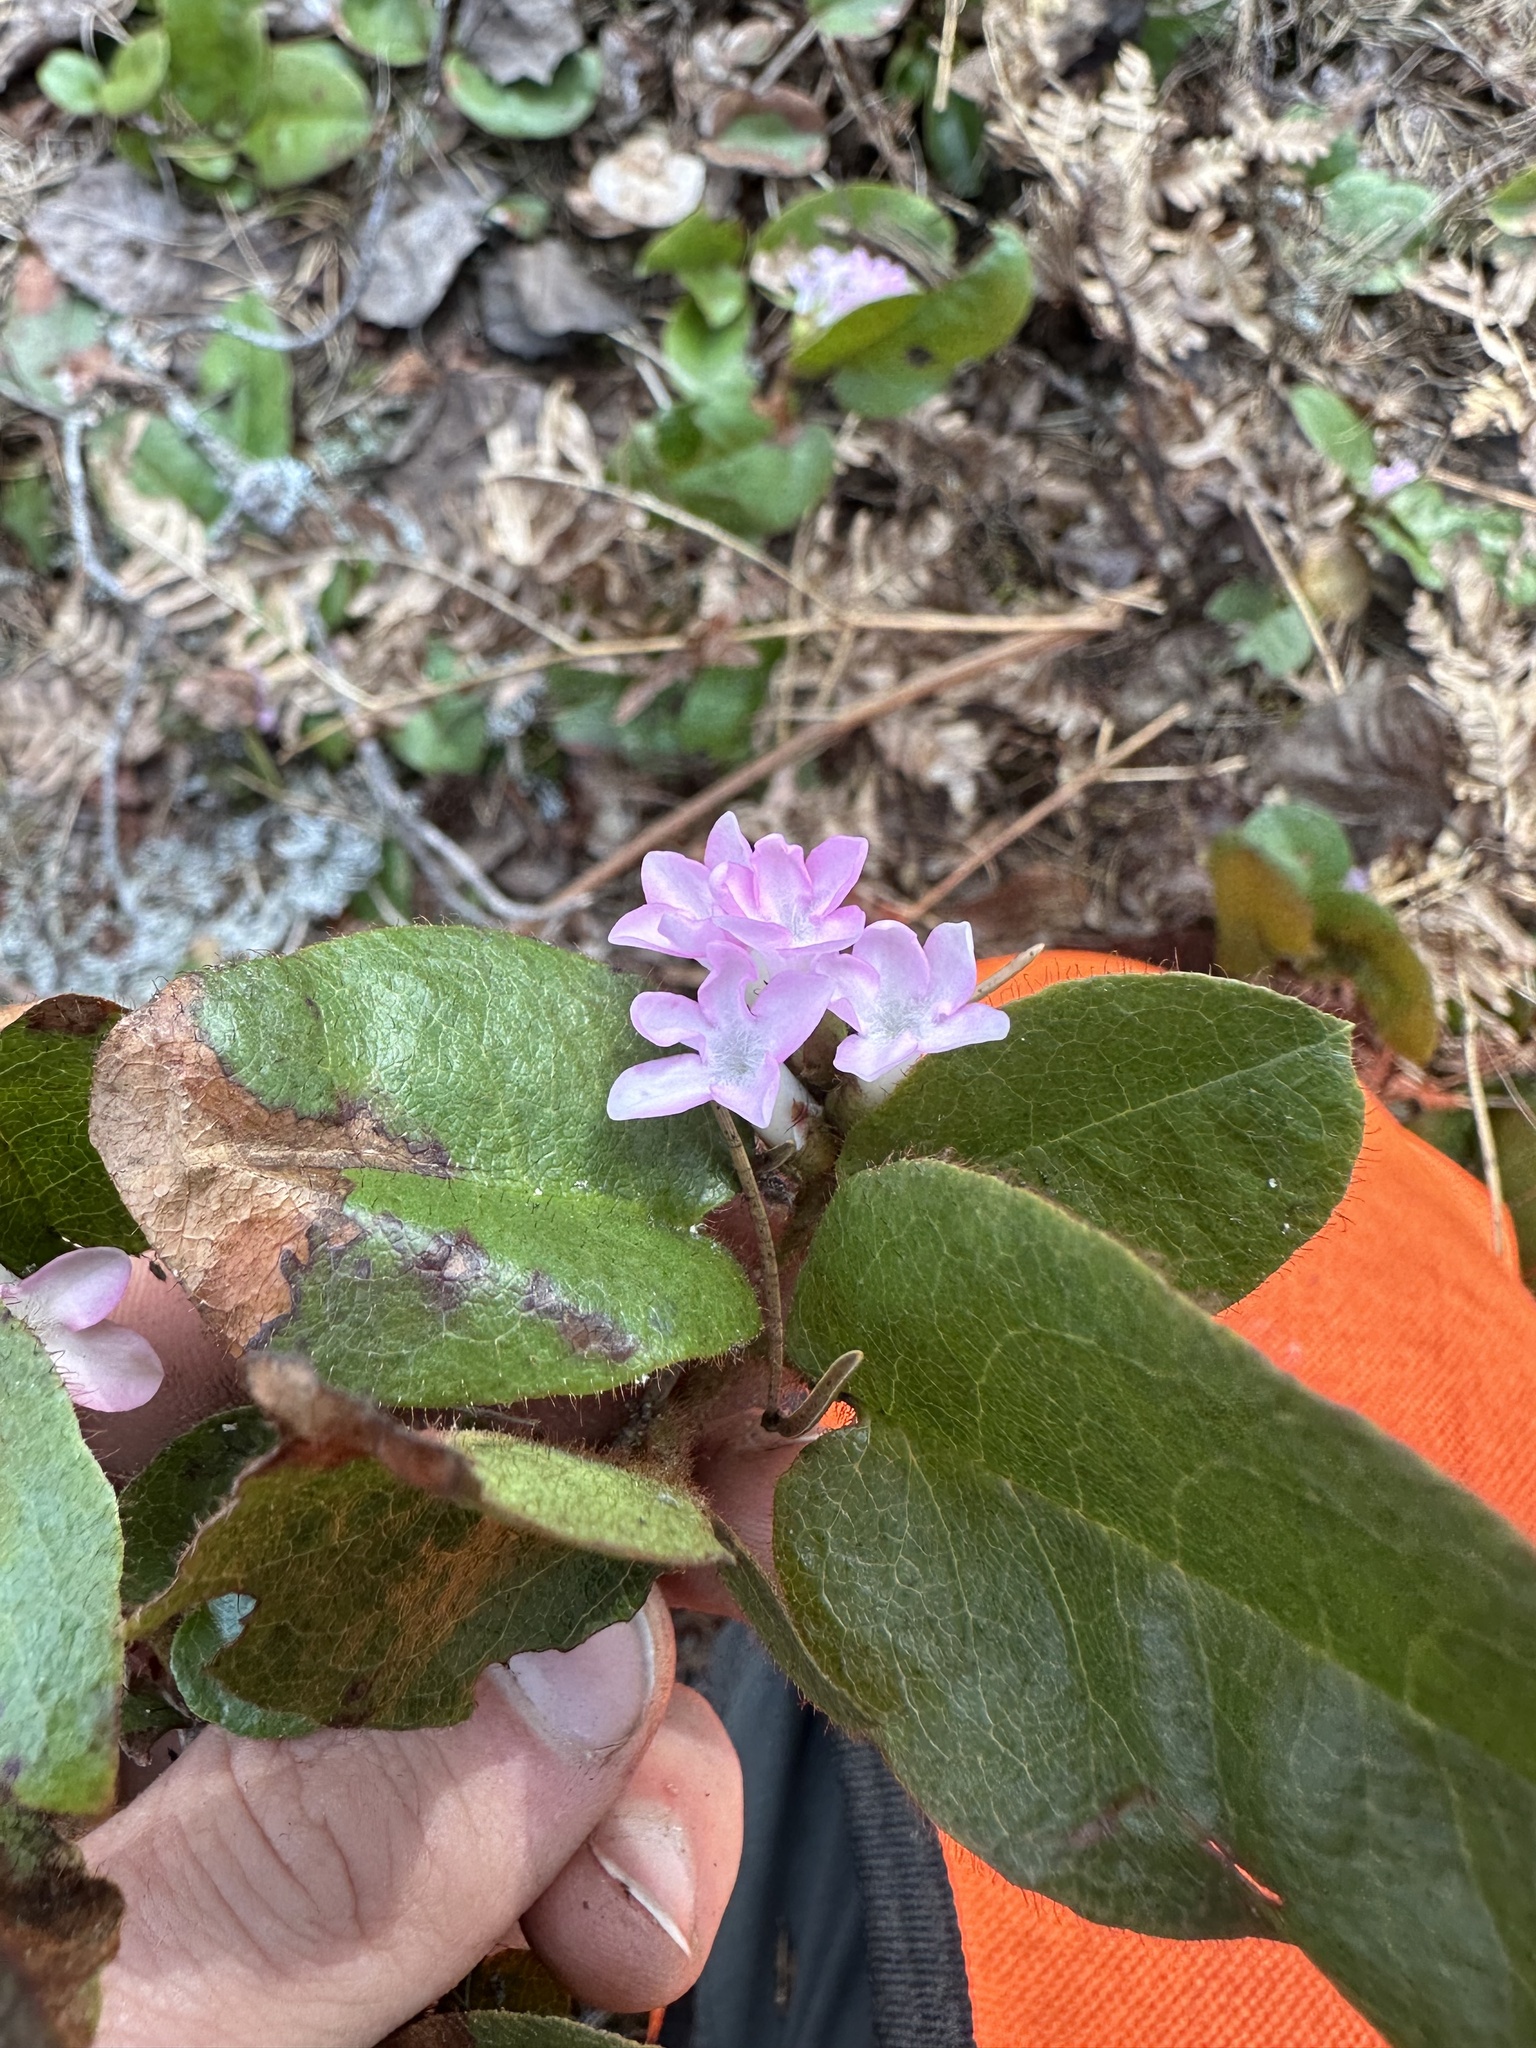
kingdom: Plantae
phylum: Tracheophyta
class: Magnoliopsida
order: Ericales
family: Ericaceae
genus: Epigaea
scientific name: Epigaea repens
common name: Gravelroot
